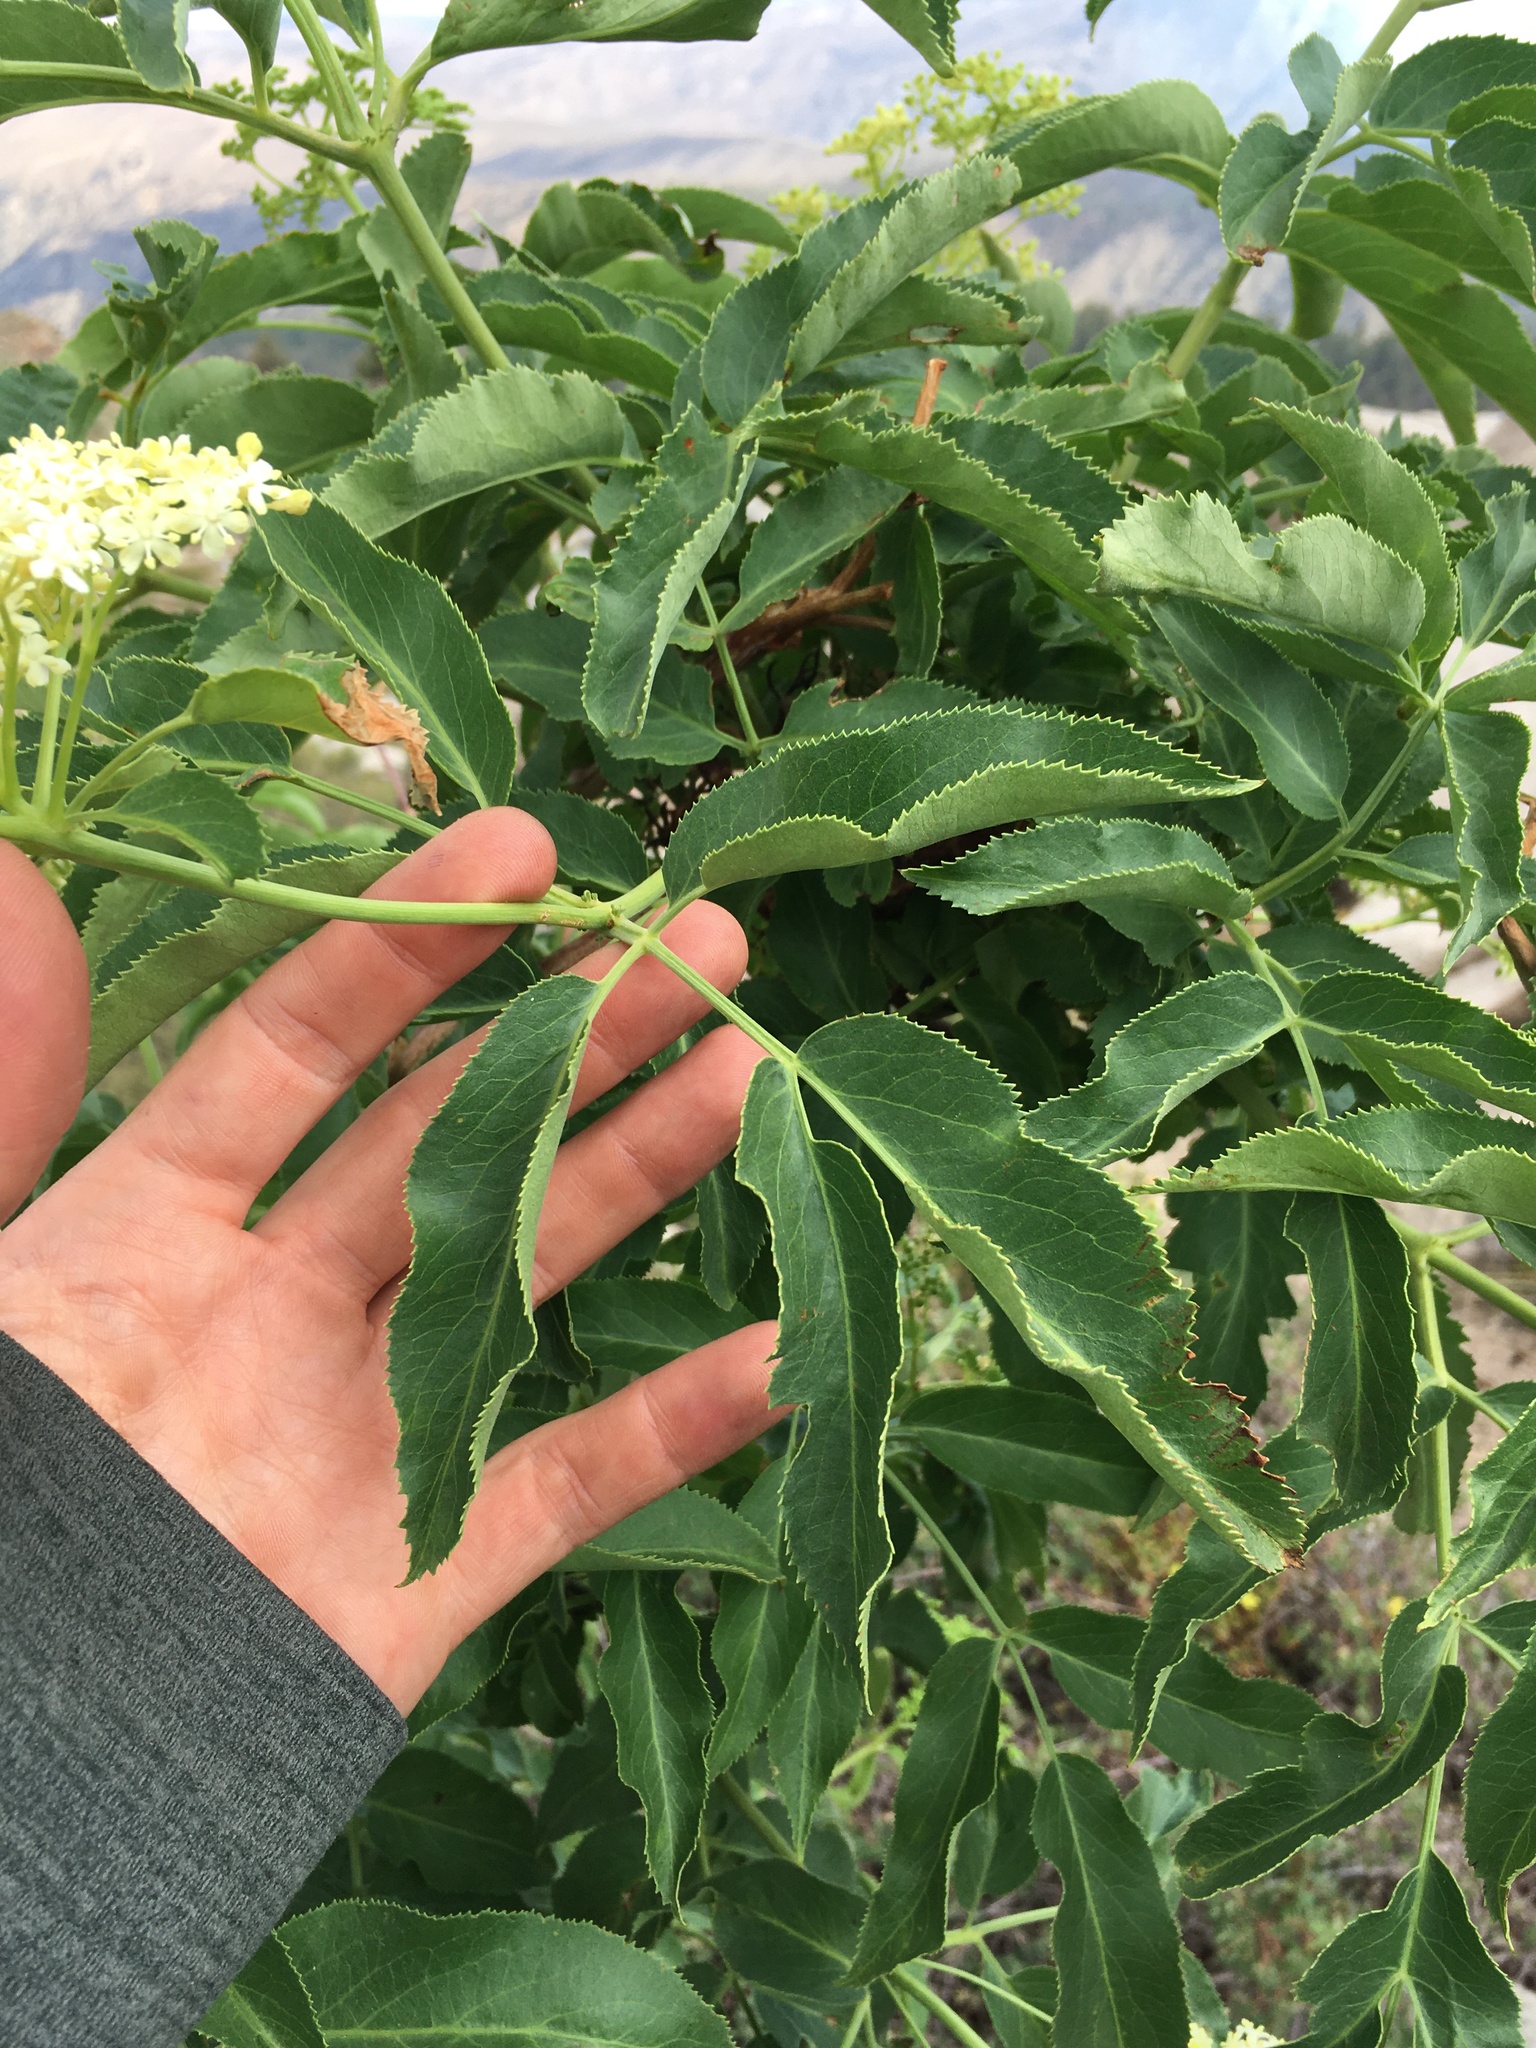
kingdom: Plantae
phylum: Tracheophyta
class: Magnoliopsida
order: Dipsacales
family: Viburnaceae
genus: Sambucus
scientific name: Sambucus cerulea
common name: Blue elder
